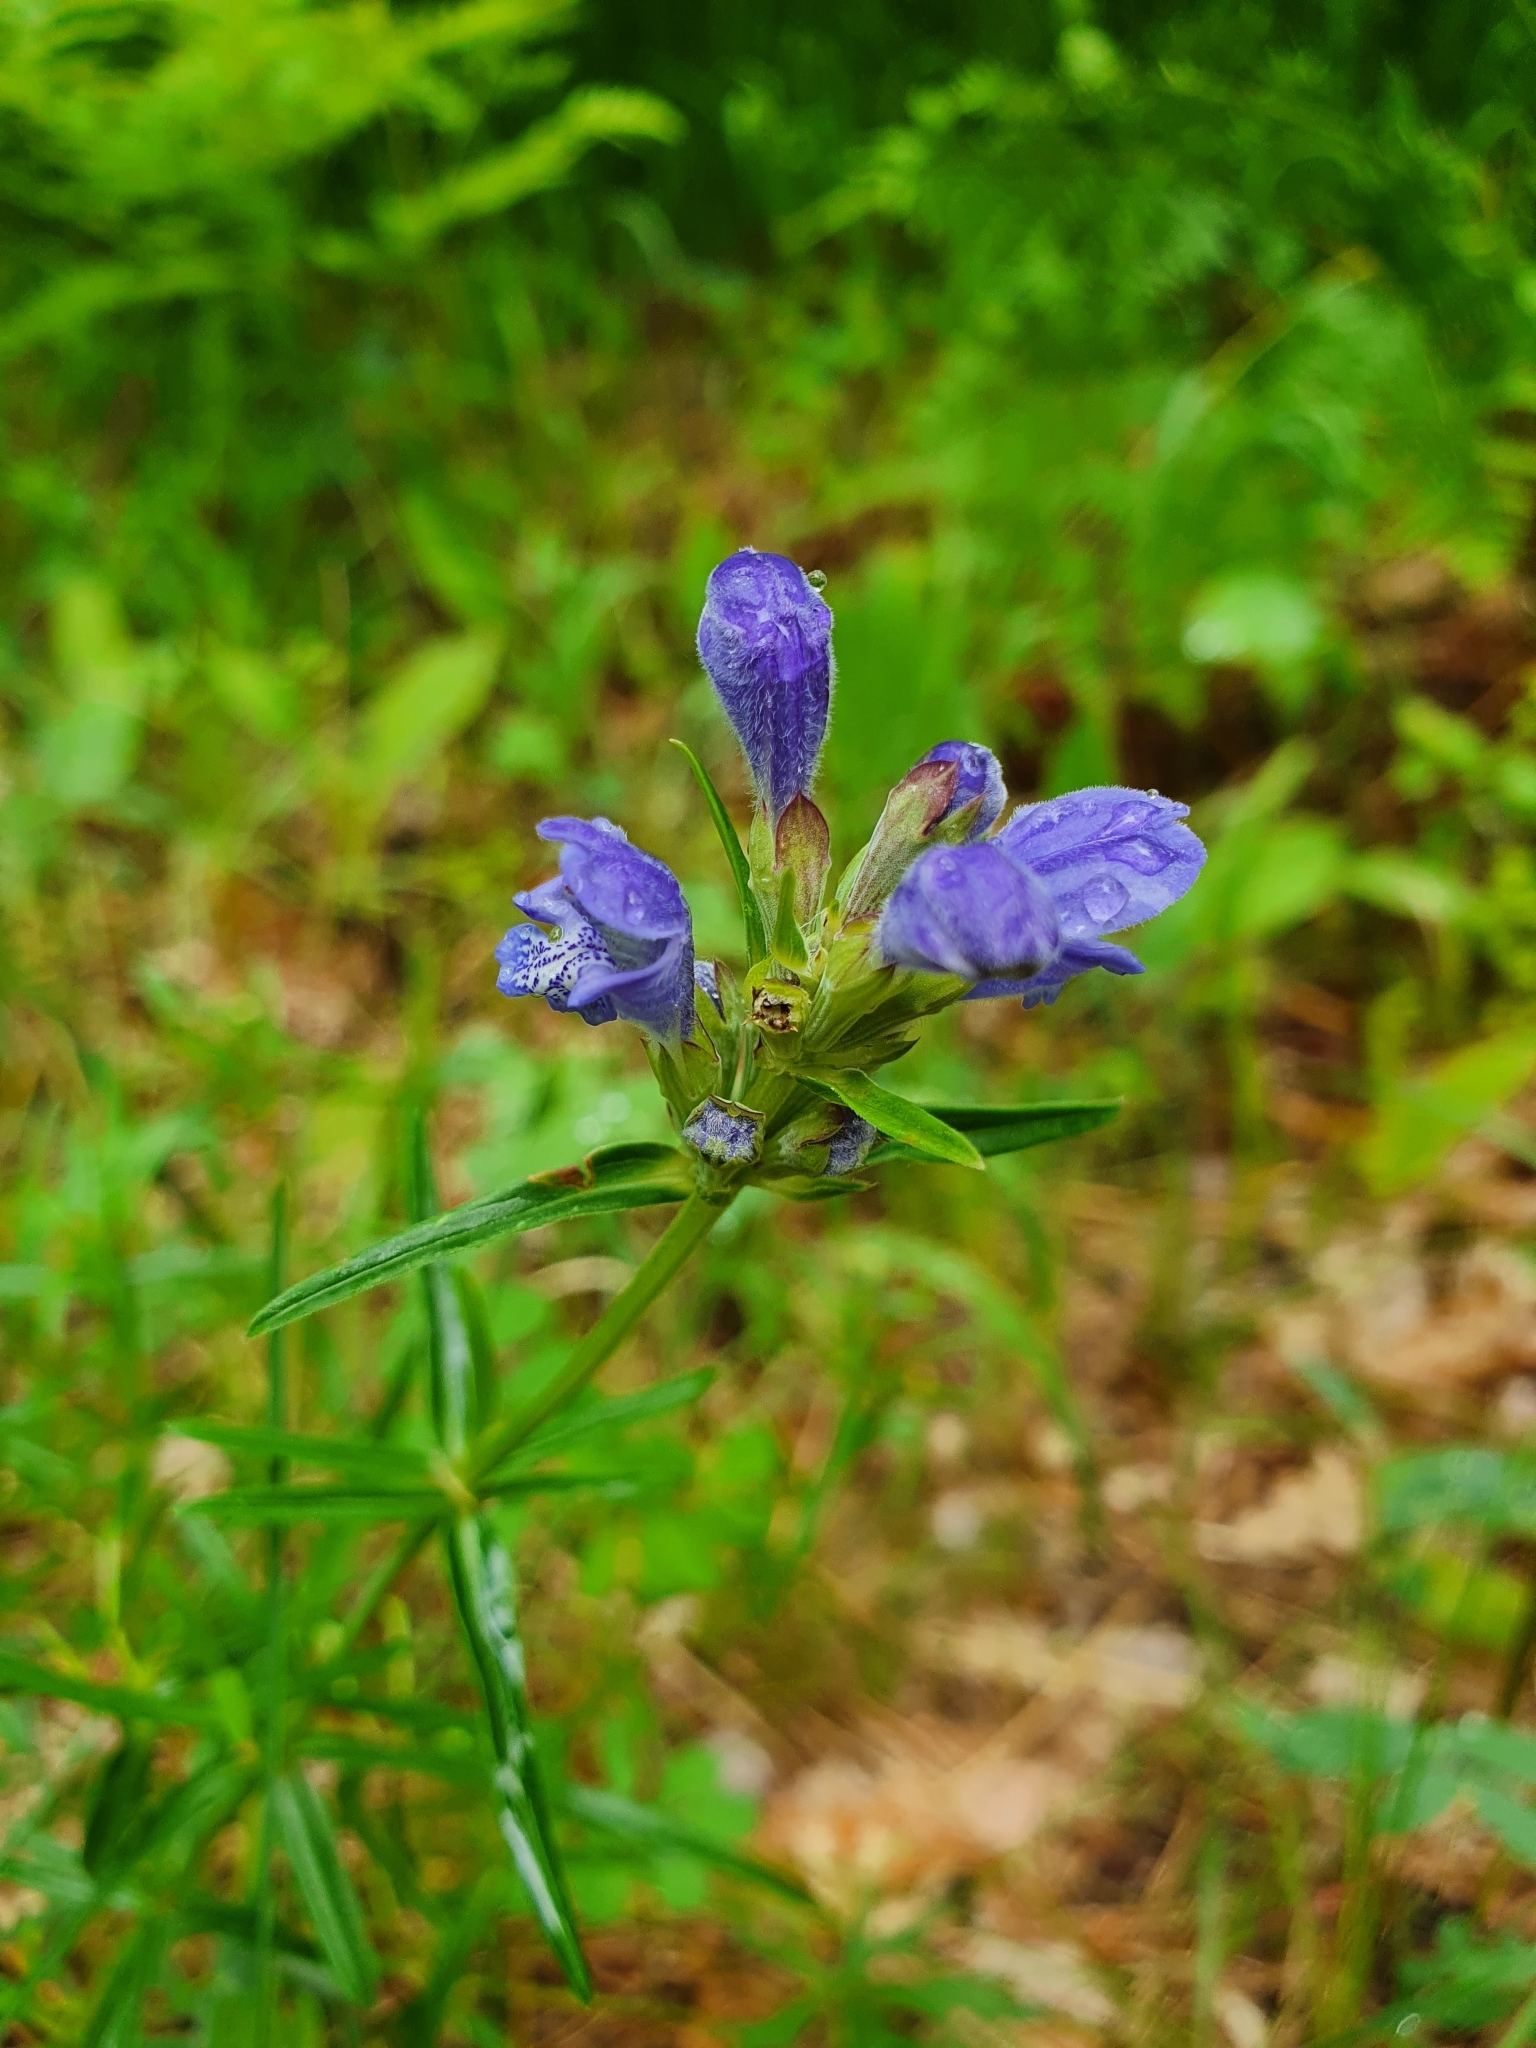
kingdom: Plantae
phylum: Tracheophyta
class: Magnoliopsida
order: Lamiales
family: Lamiaceae
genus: Dracocephalum
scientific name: Dracocephalum ruyschiana
